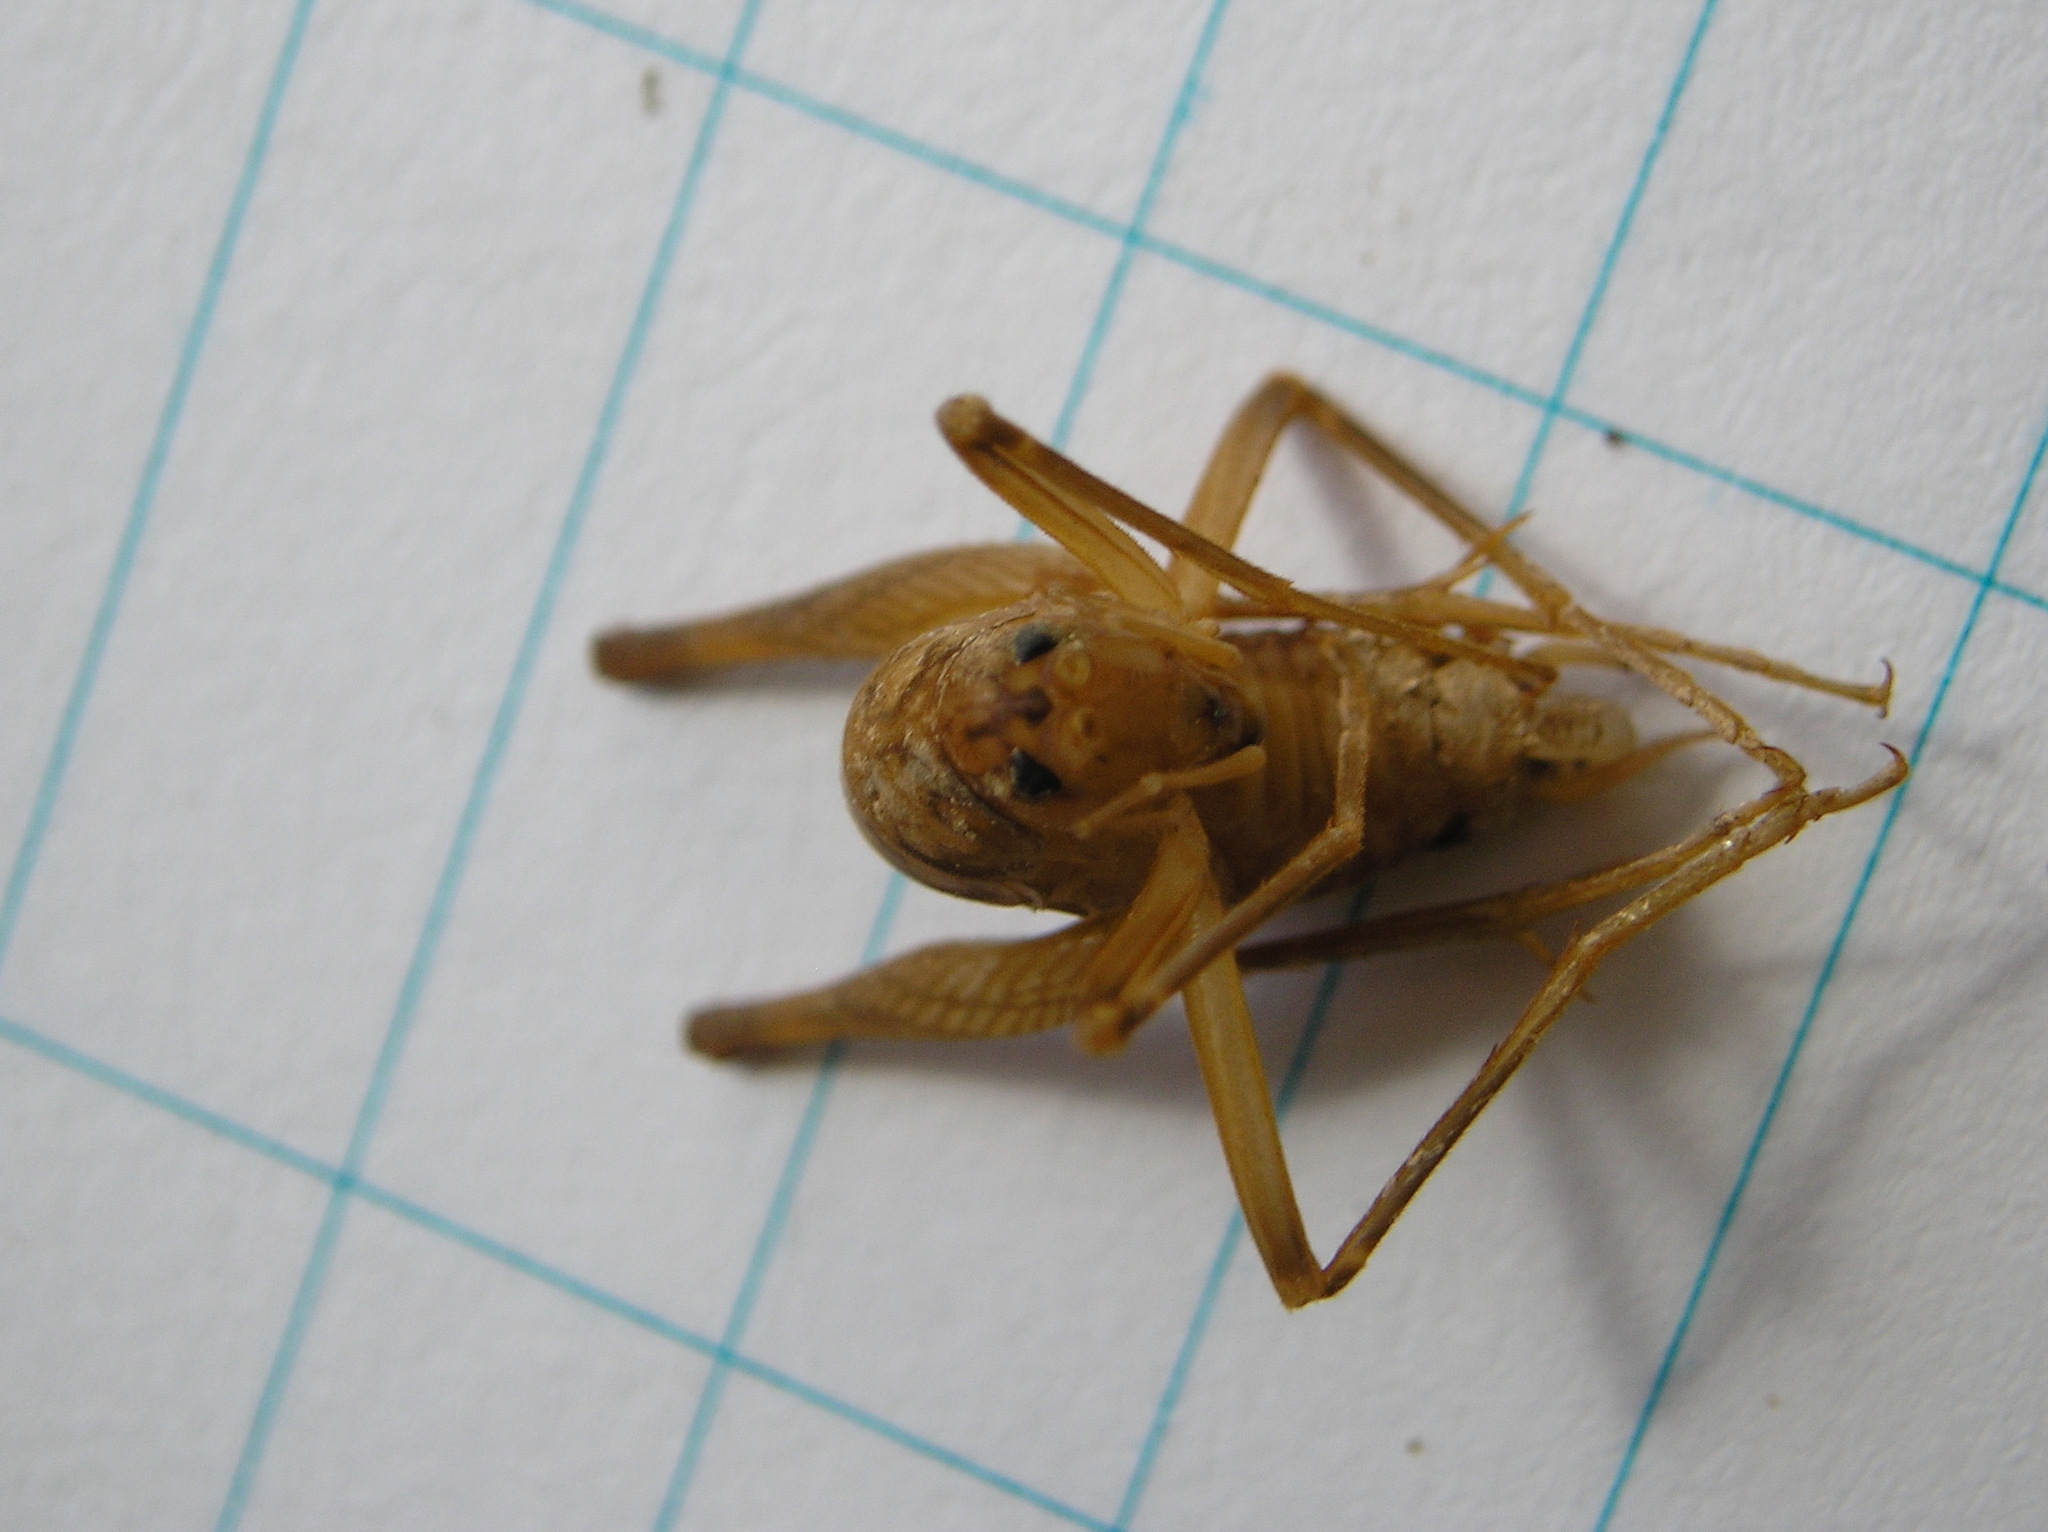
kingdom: Animalia
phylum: Arthropoda
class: Insecta
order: Orthoptera
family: Rhaphidophoridae
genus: Farallonophilus
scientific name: Farallonophilus cavernicolus
